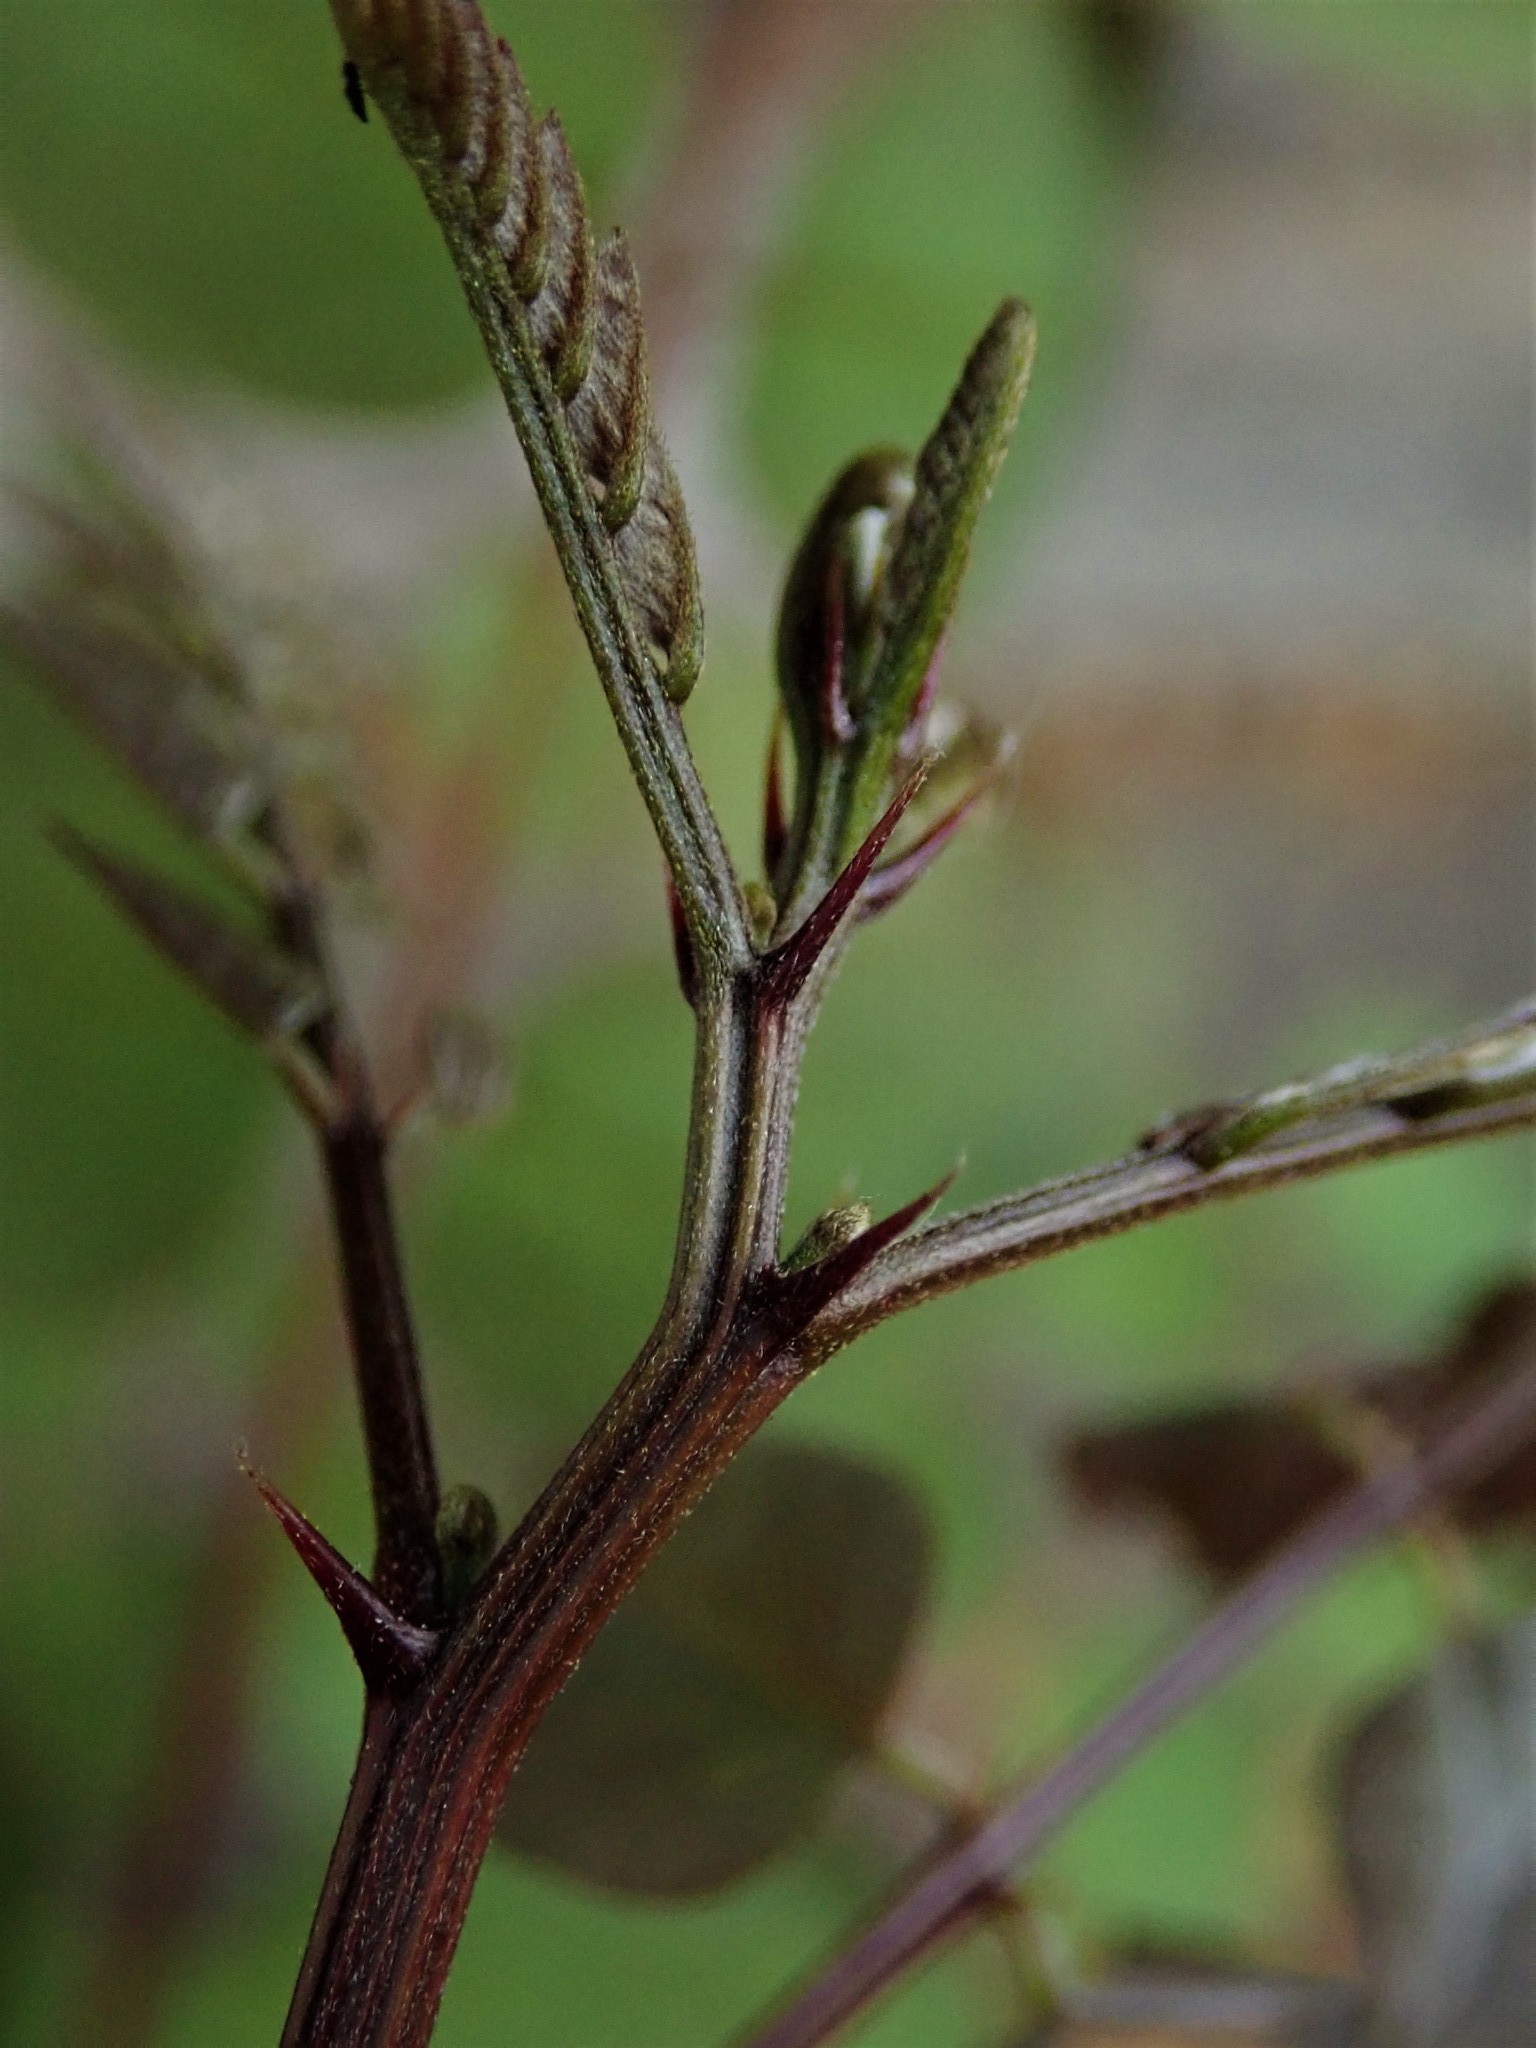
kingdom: Plantae
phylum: Tracheophyta
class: Magnoliopsida
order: Fabales
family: Fabaceae
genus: Robinia
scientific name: Robinia pseudoacacia
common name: Black locust
